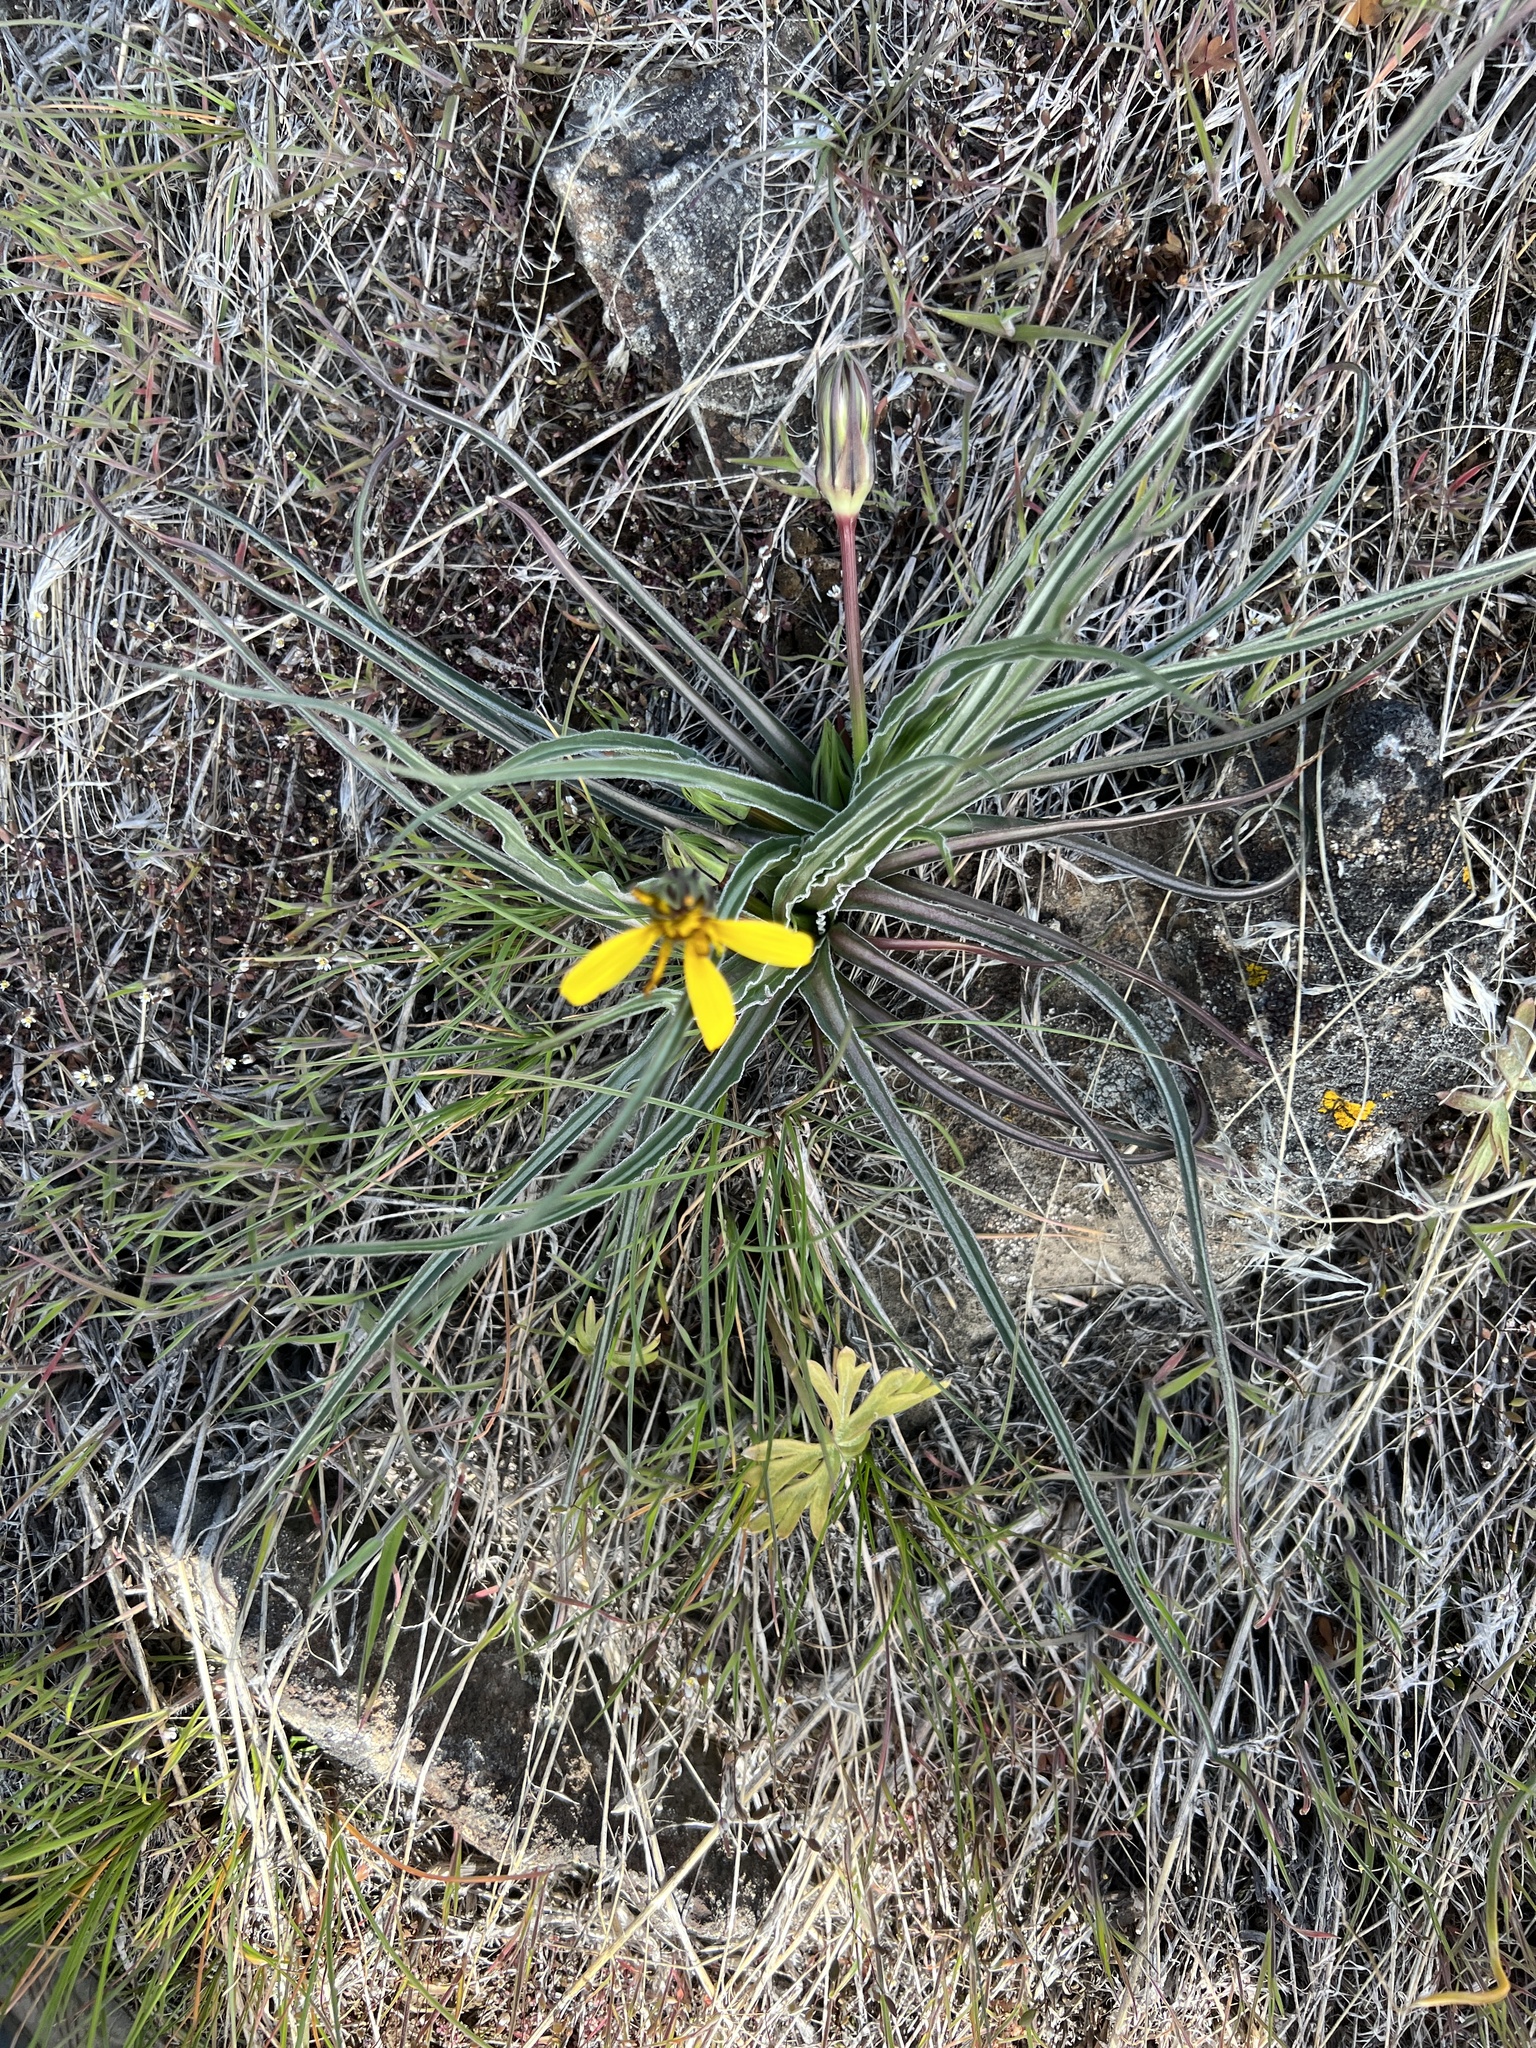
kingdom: Plantae
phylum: Tracheophyta
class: Magnoliopsida
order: Asterales
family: Asteraceae
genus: Microseris
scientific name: Microseris troximoides
